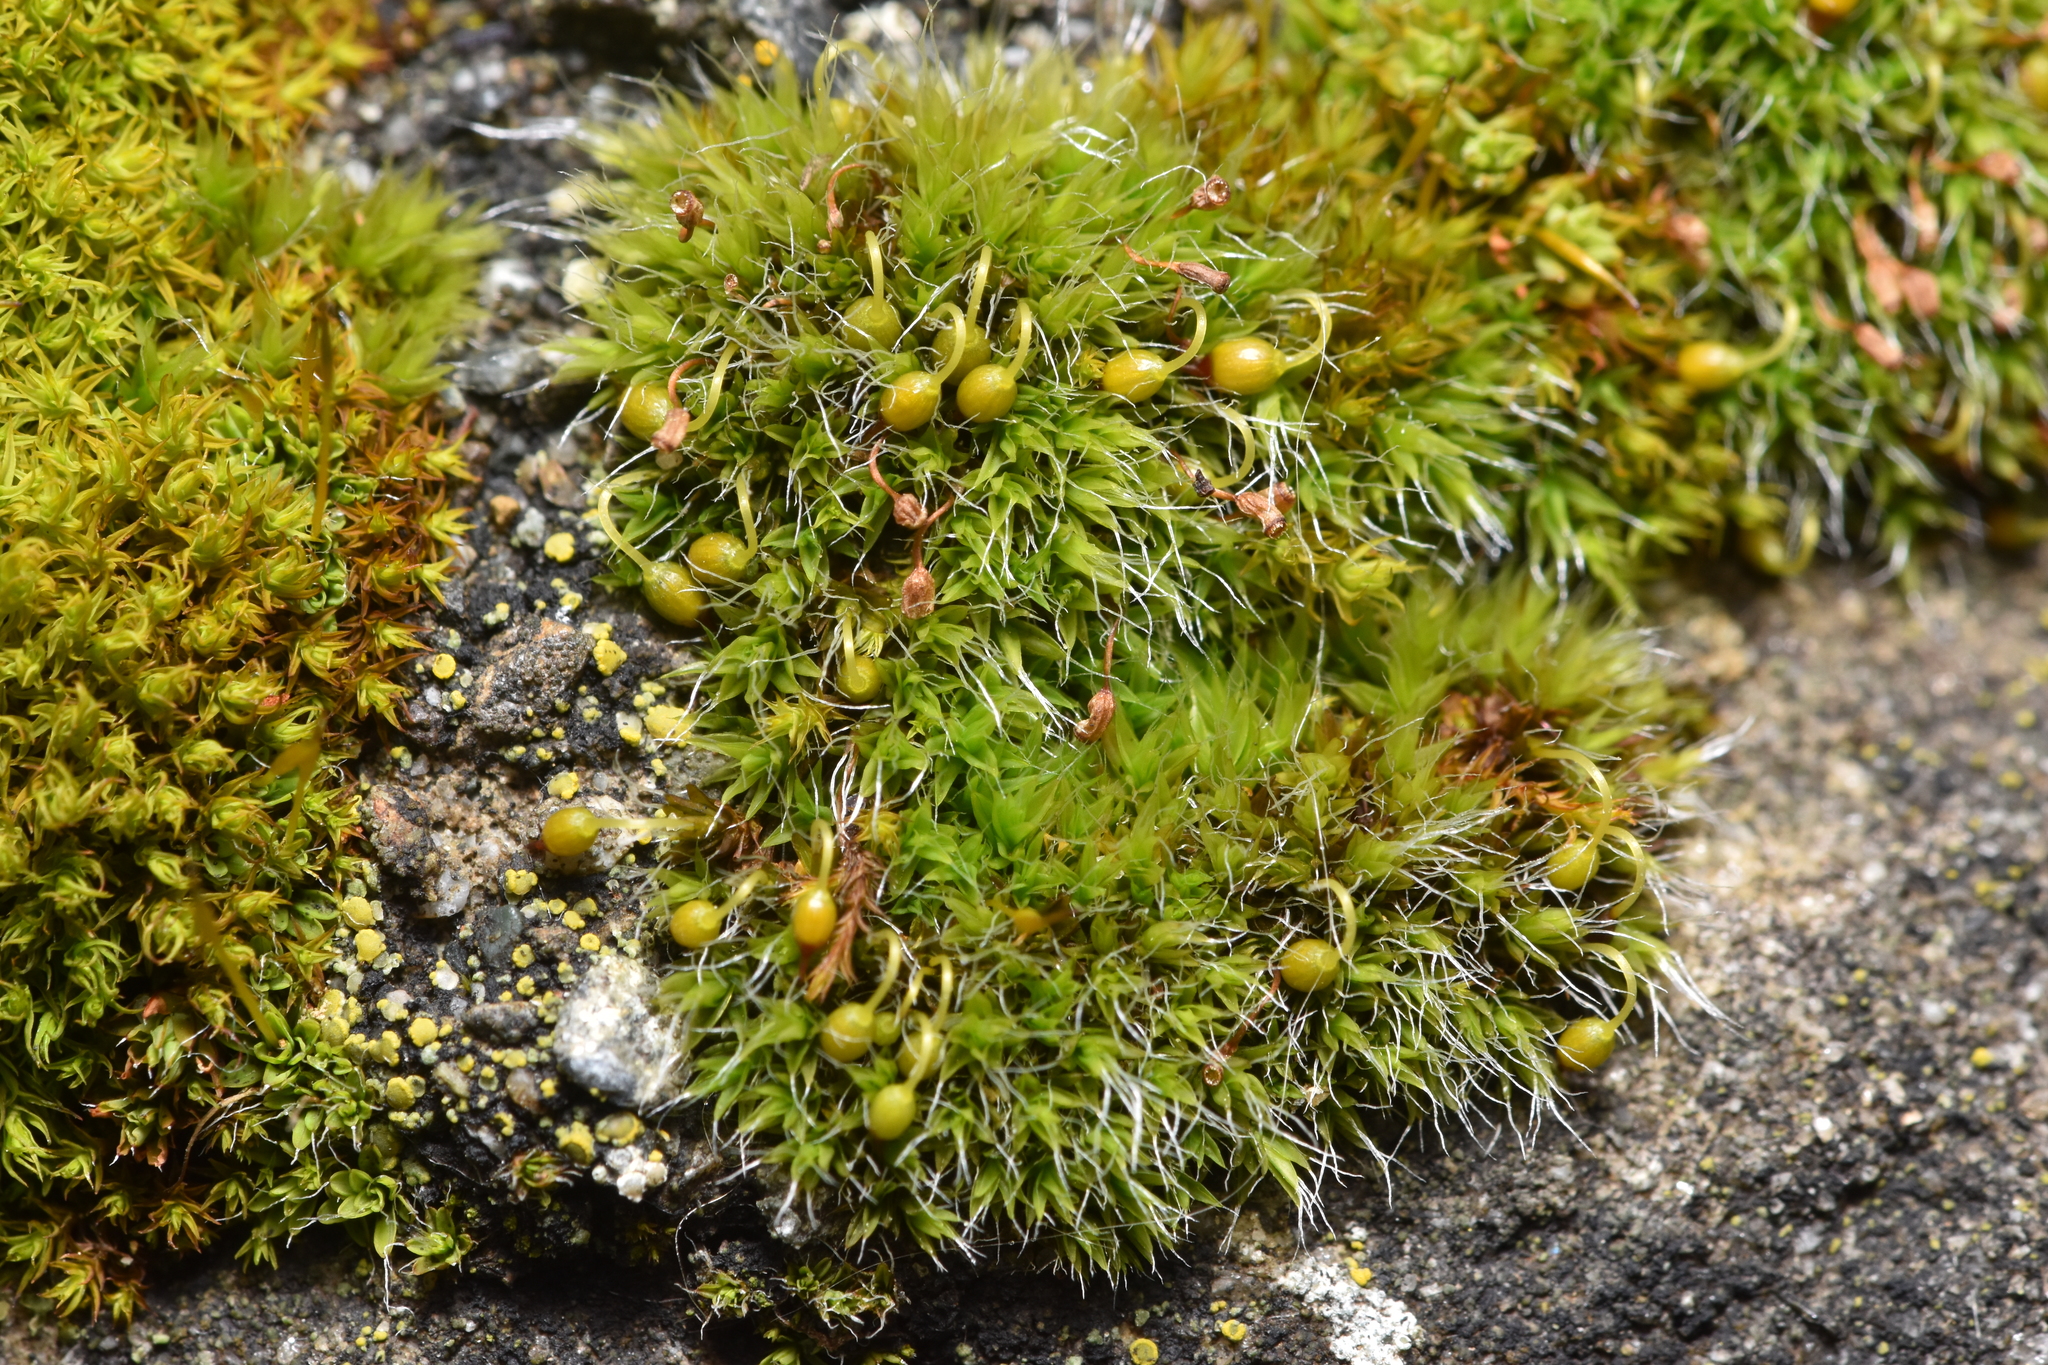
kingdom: Plantae
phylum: Bryophyta
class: Bryopsida
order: Grimmiales
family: Grimmiaceae
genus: Grimmia
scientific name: Grimmia pulvinata
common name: Grey-cushioned grimmia
